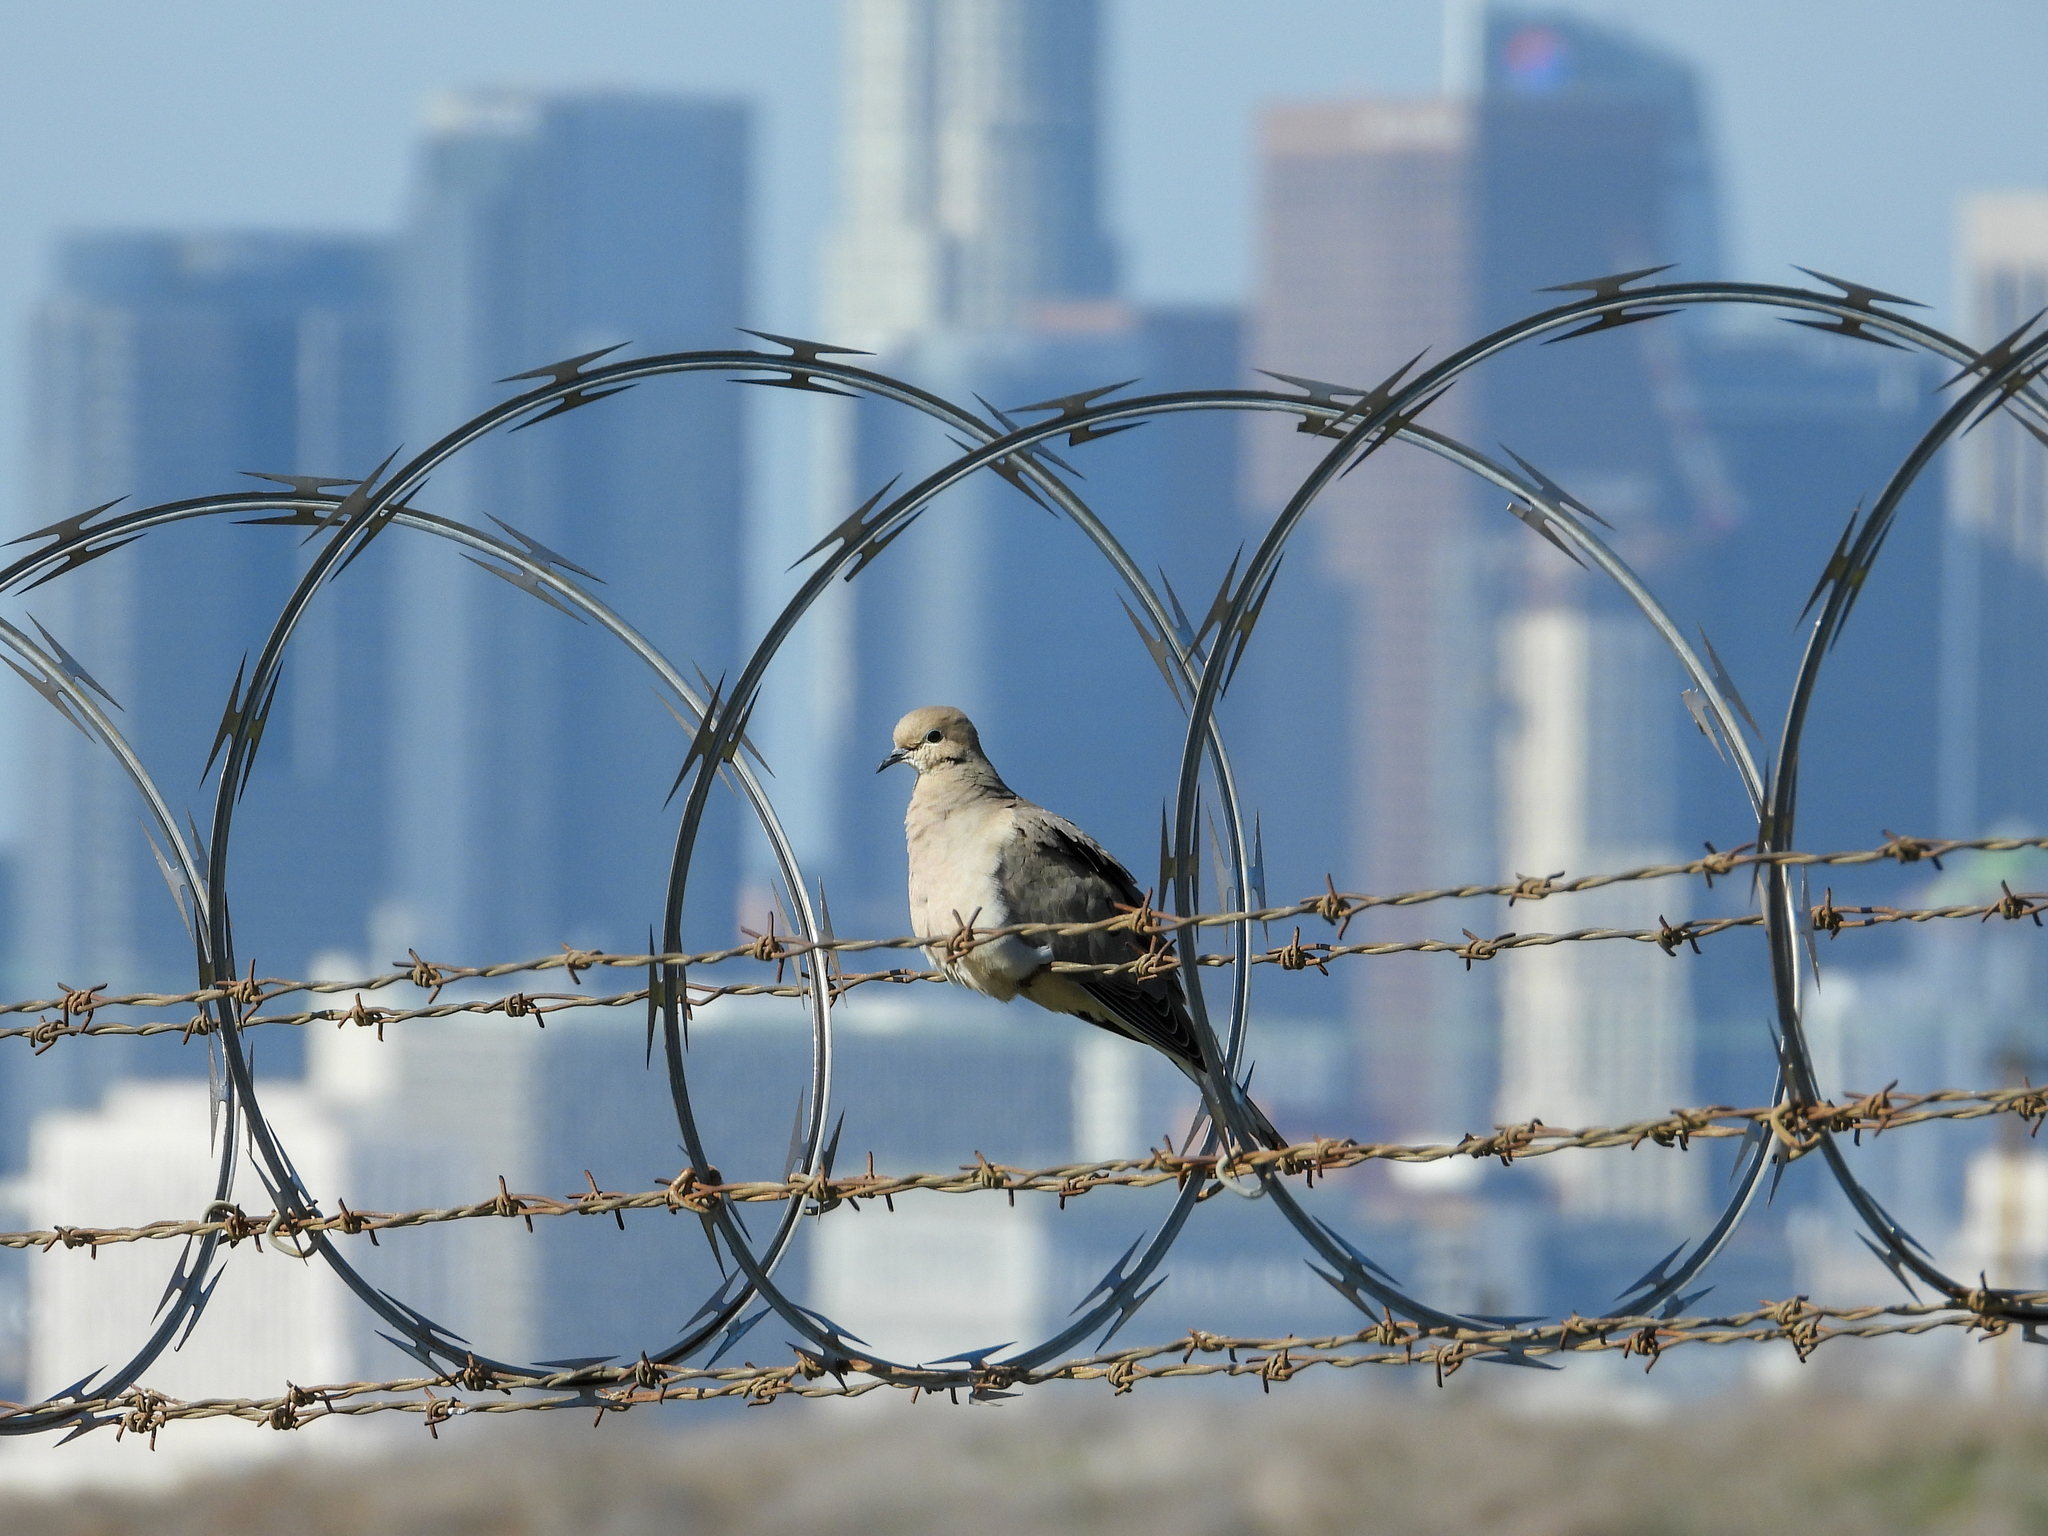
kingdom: Animalia
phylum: Chordata
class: Aves
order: Columbiformes
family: Columbidae
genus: Zenaida
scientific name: Zenaida macroura
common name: Mourning dove
